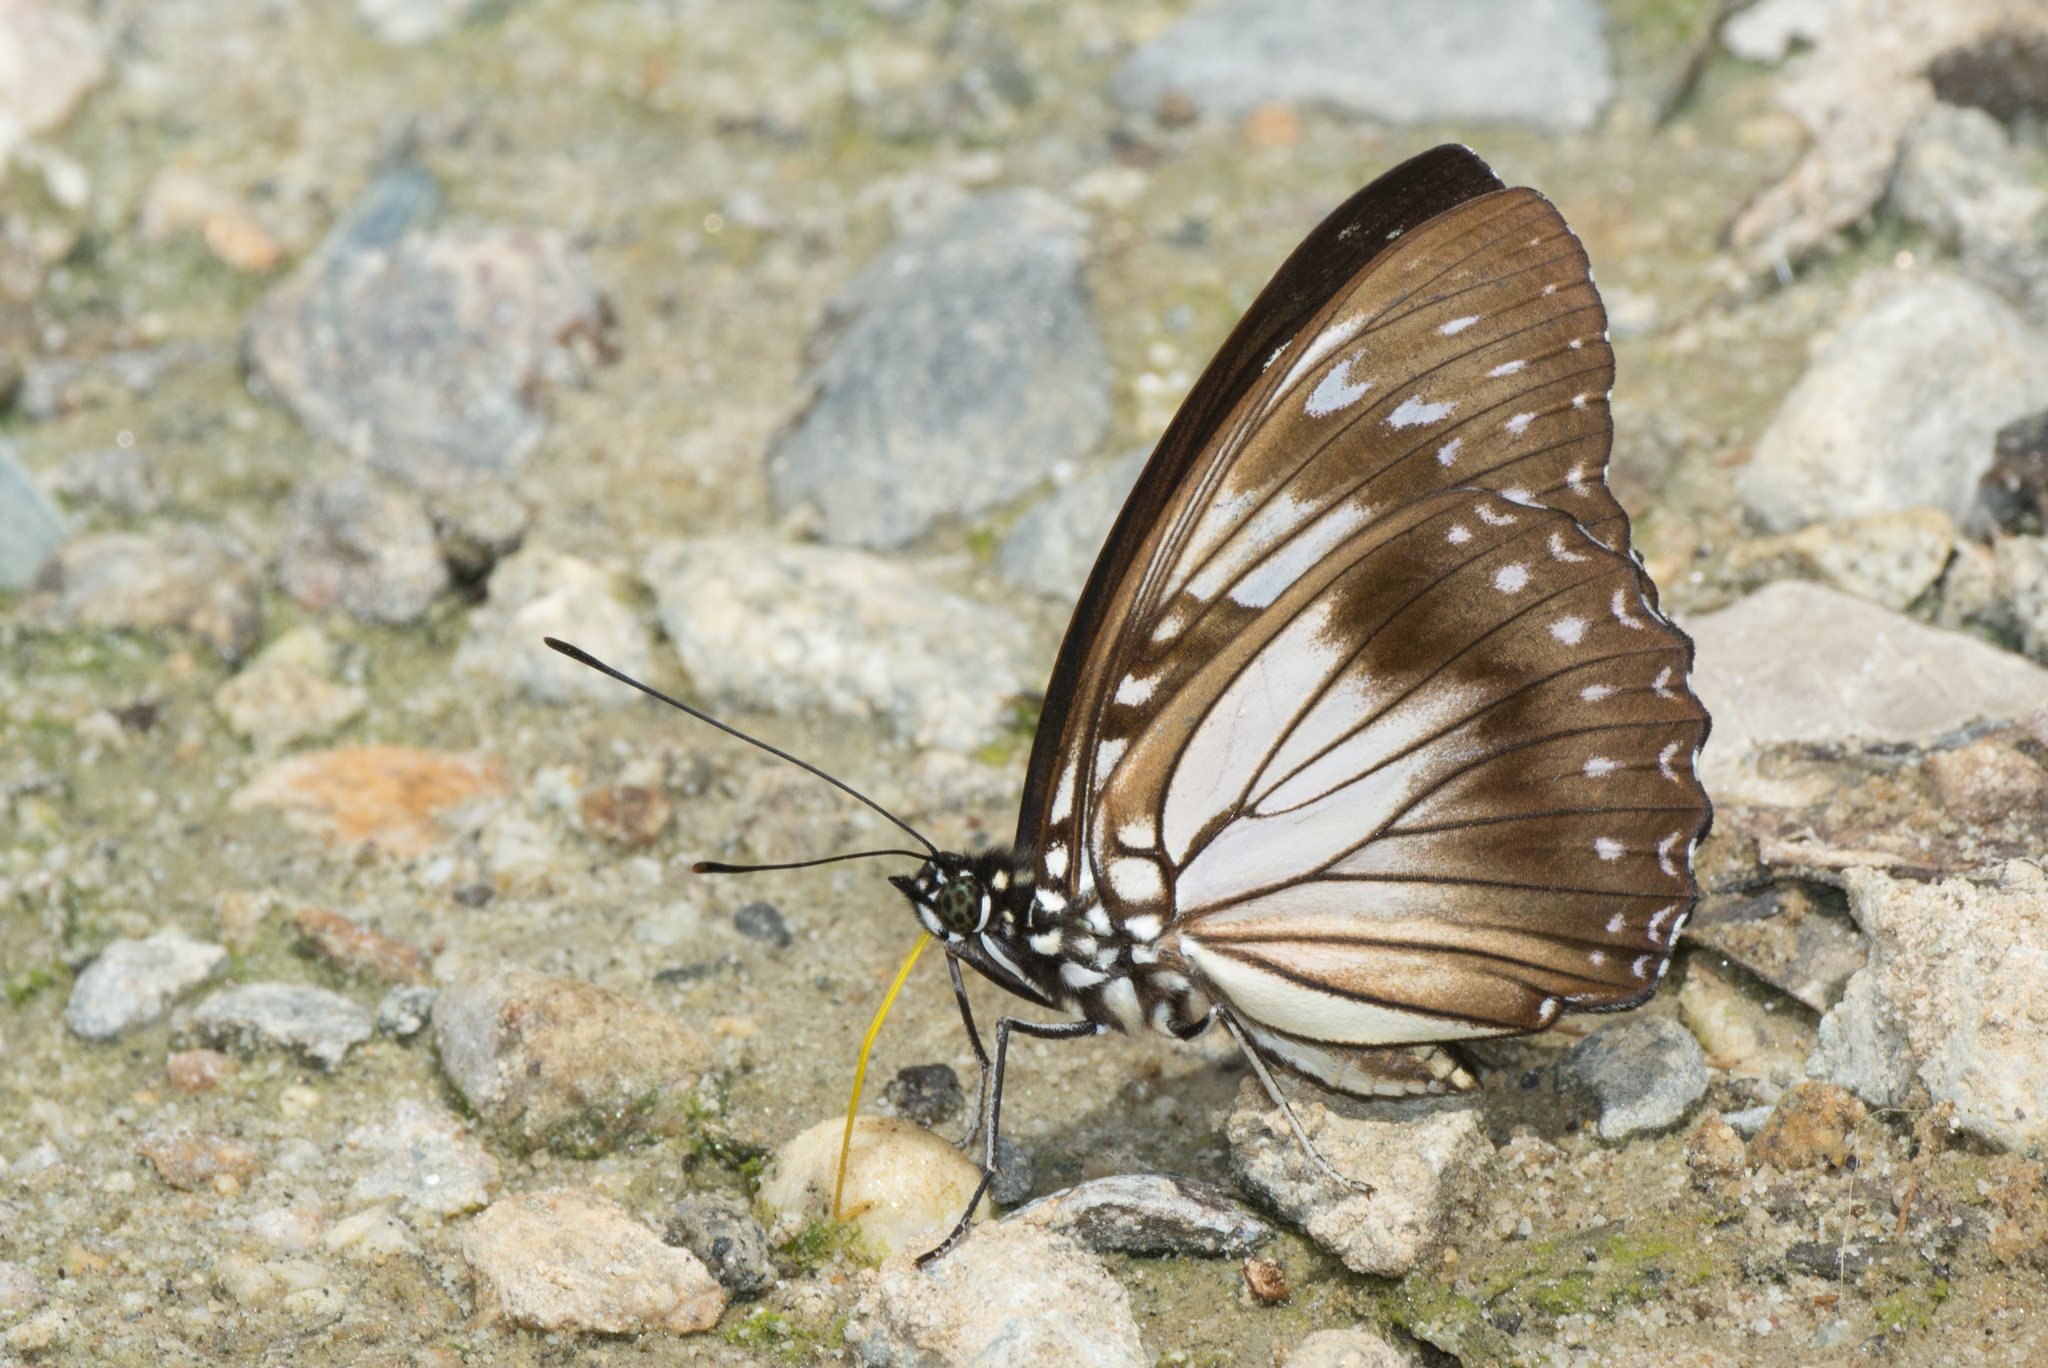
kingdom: Animalia
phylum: Arthropoda
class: Insecta
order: Lepidoptera
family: Nymphalidae
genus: Hestinalis
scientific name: Hestinalis divona
